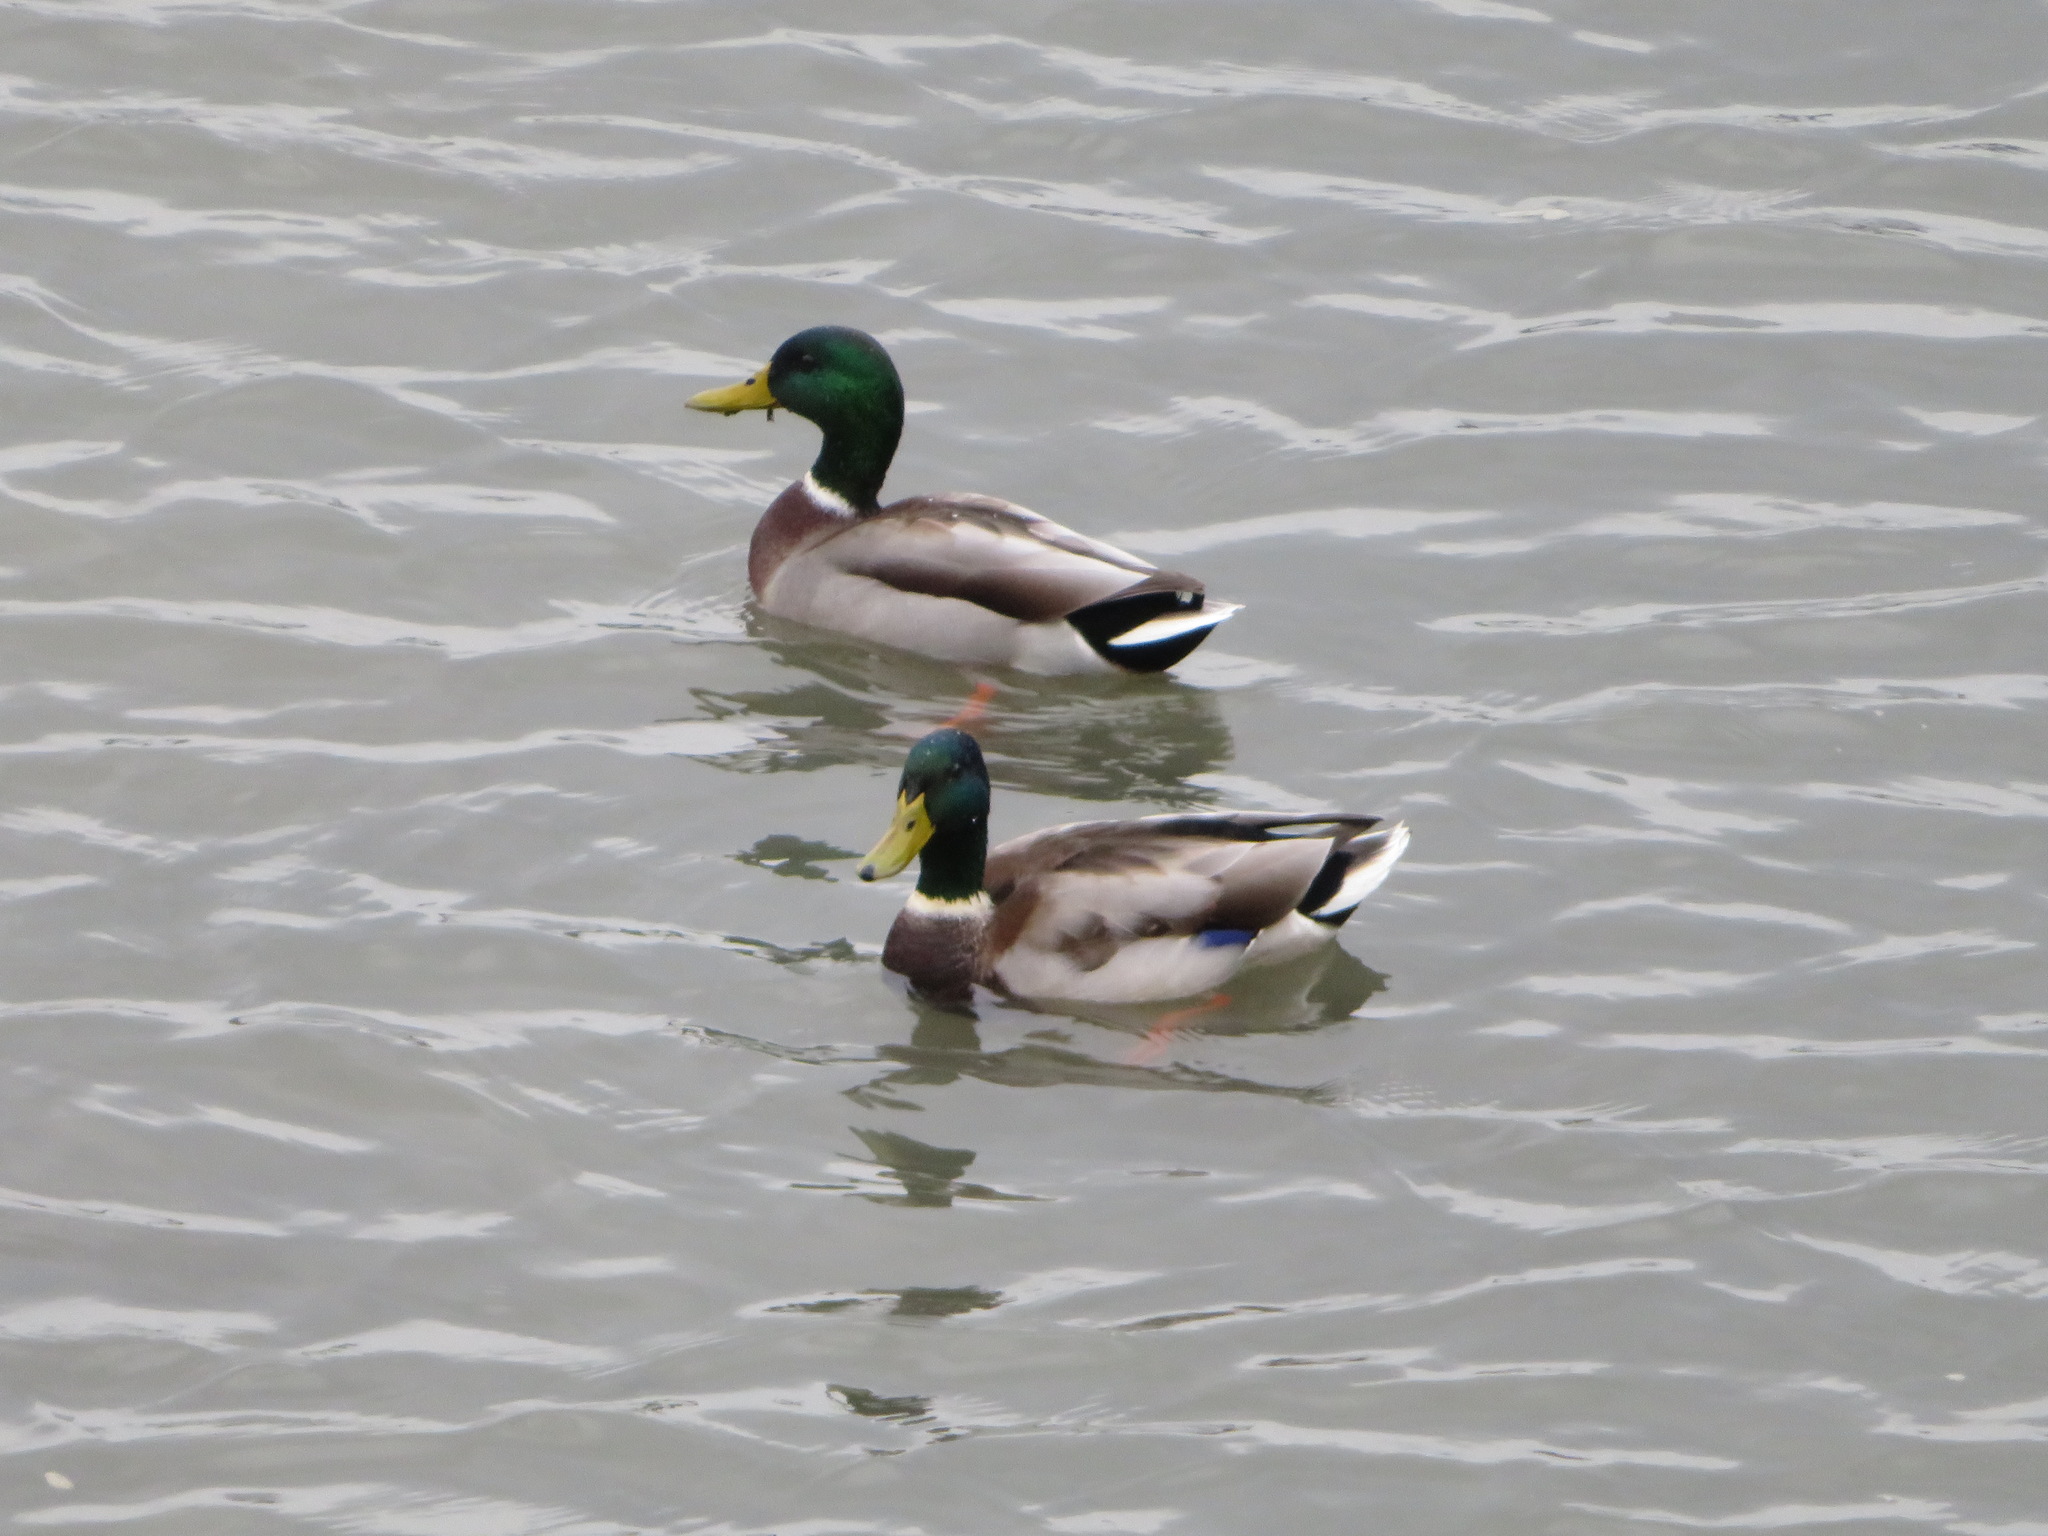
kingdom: Animalia
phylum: Chordata
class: Aves
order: Anseriformes
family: Anatidae
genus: Anas
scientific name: Anas platyrhynchos
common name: Mallard
